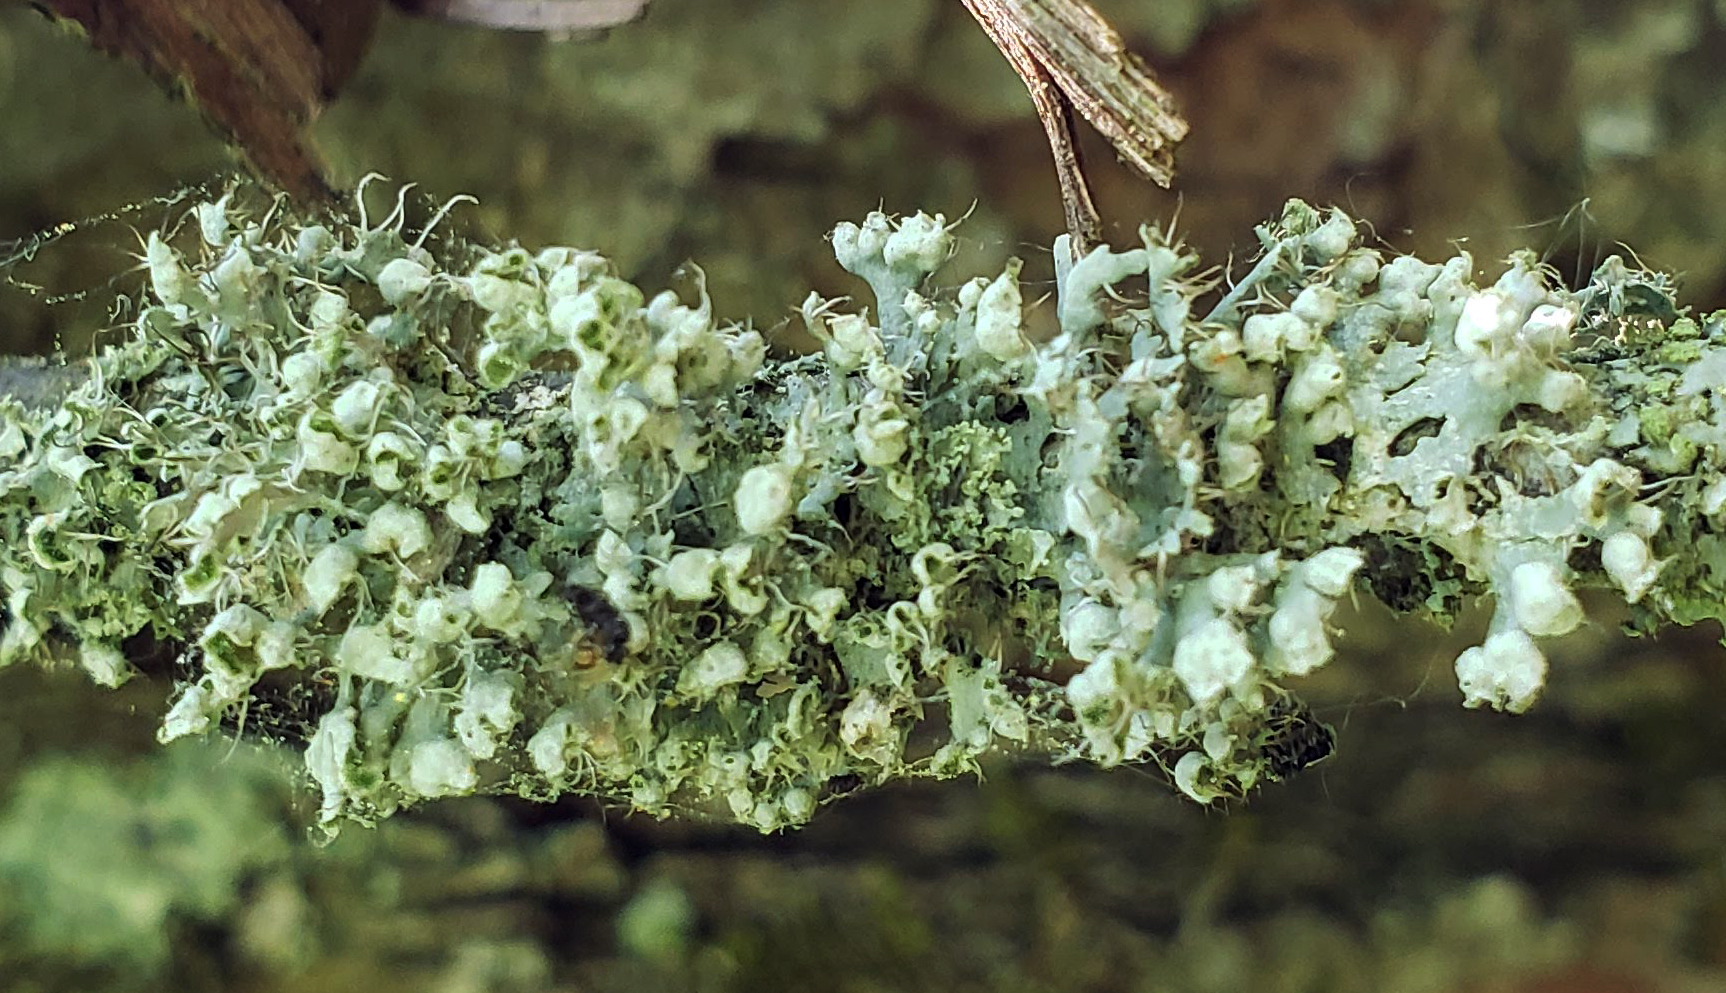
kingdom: Fungi
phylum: Ascomycota
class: Lecanoromycetes
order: Caliciales
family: Physciaceae
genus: Physcia
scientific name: Physcia adscendens
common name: Hooded rosette lichen
